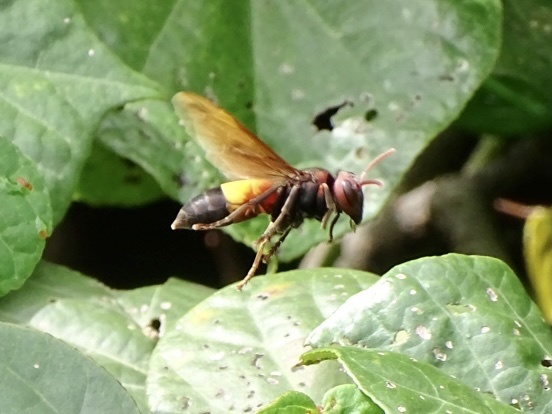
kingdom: Animalia
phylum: Arthropoda
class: Insecta
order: Hymenoptera
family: Vespidae
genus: Vespa
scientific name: Vespa affinis
